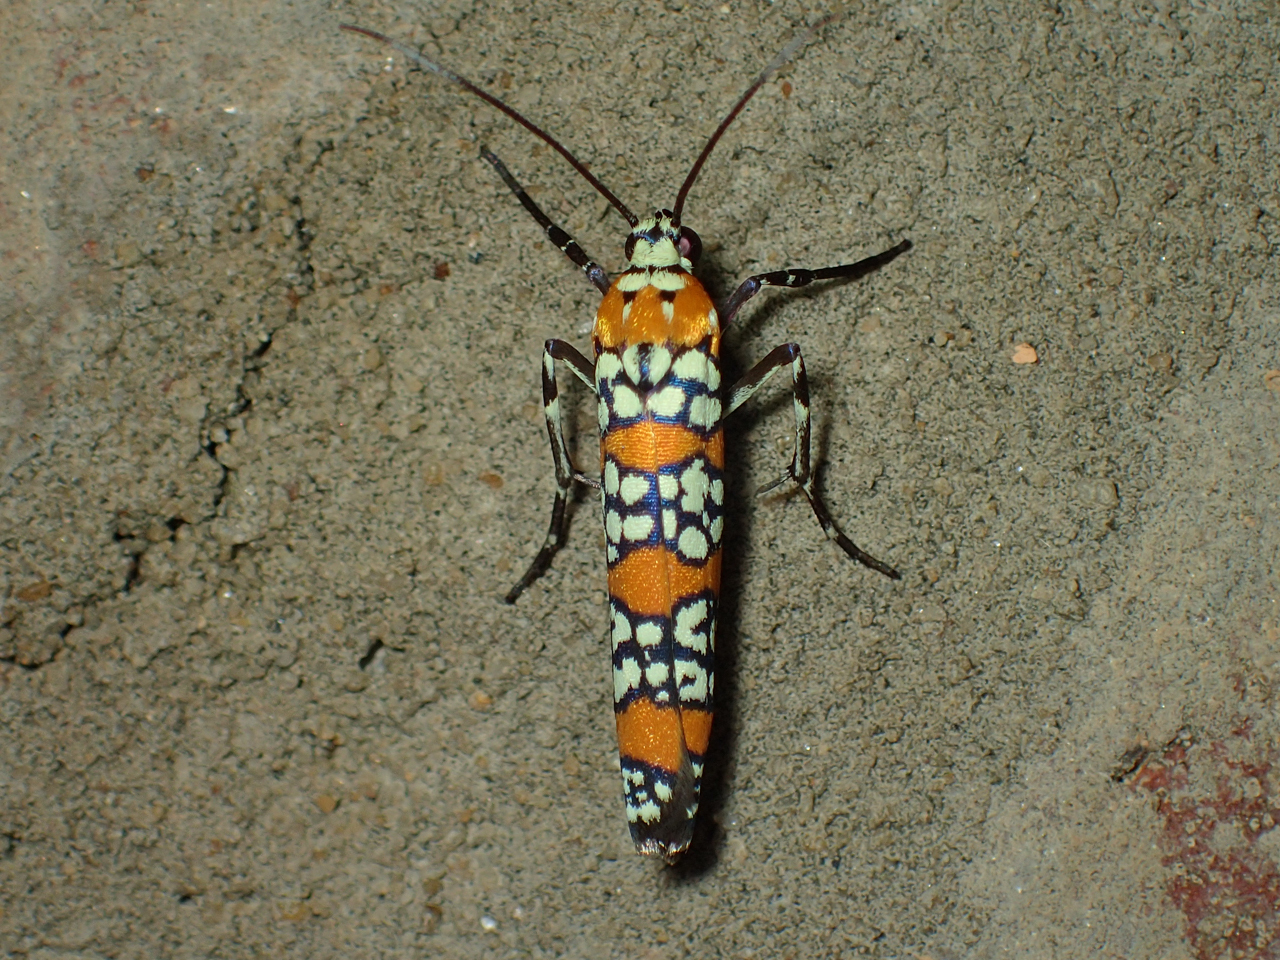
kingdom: Animalia
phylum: Arthropoda
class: Insecta
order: Lepidoptera
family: Attevidae
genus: Atteva
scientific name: Atteva punctella
